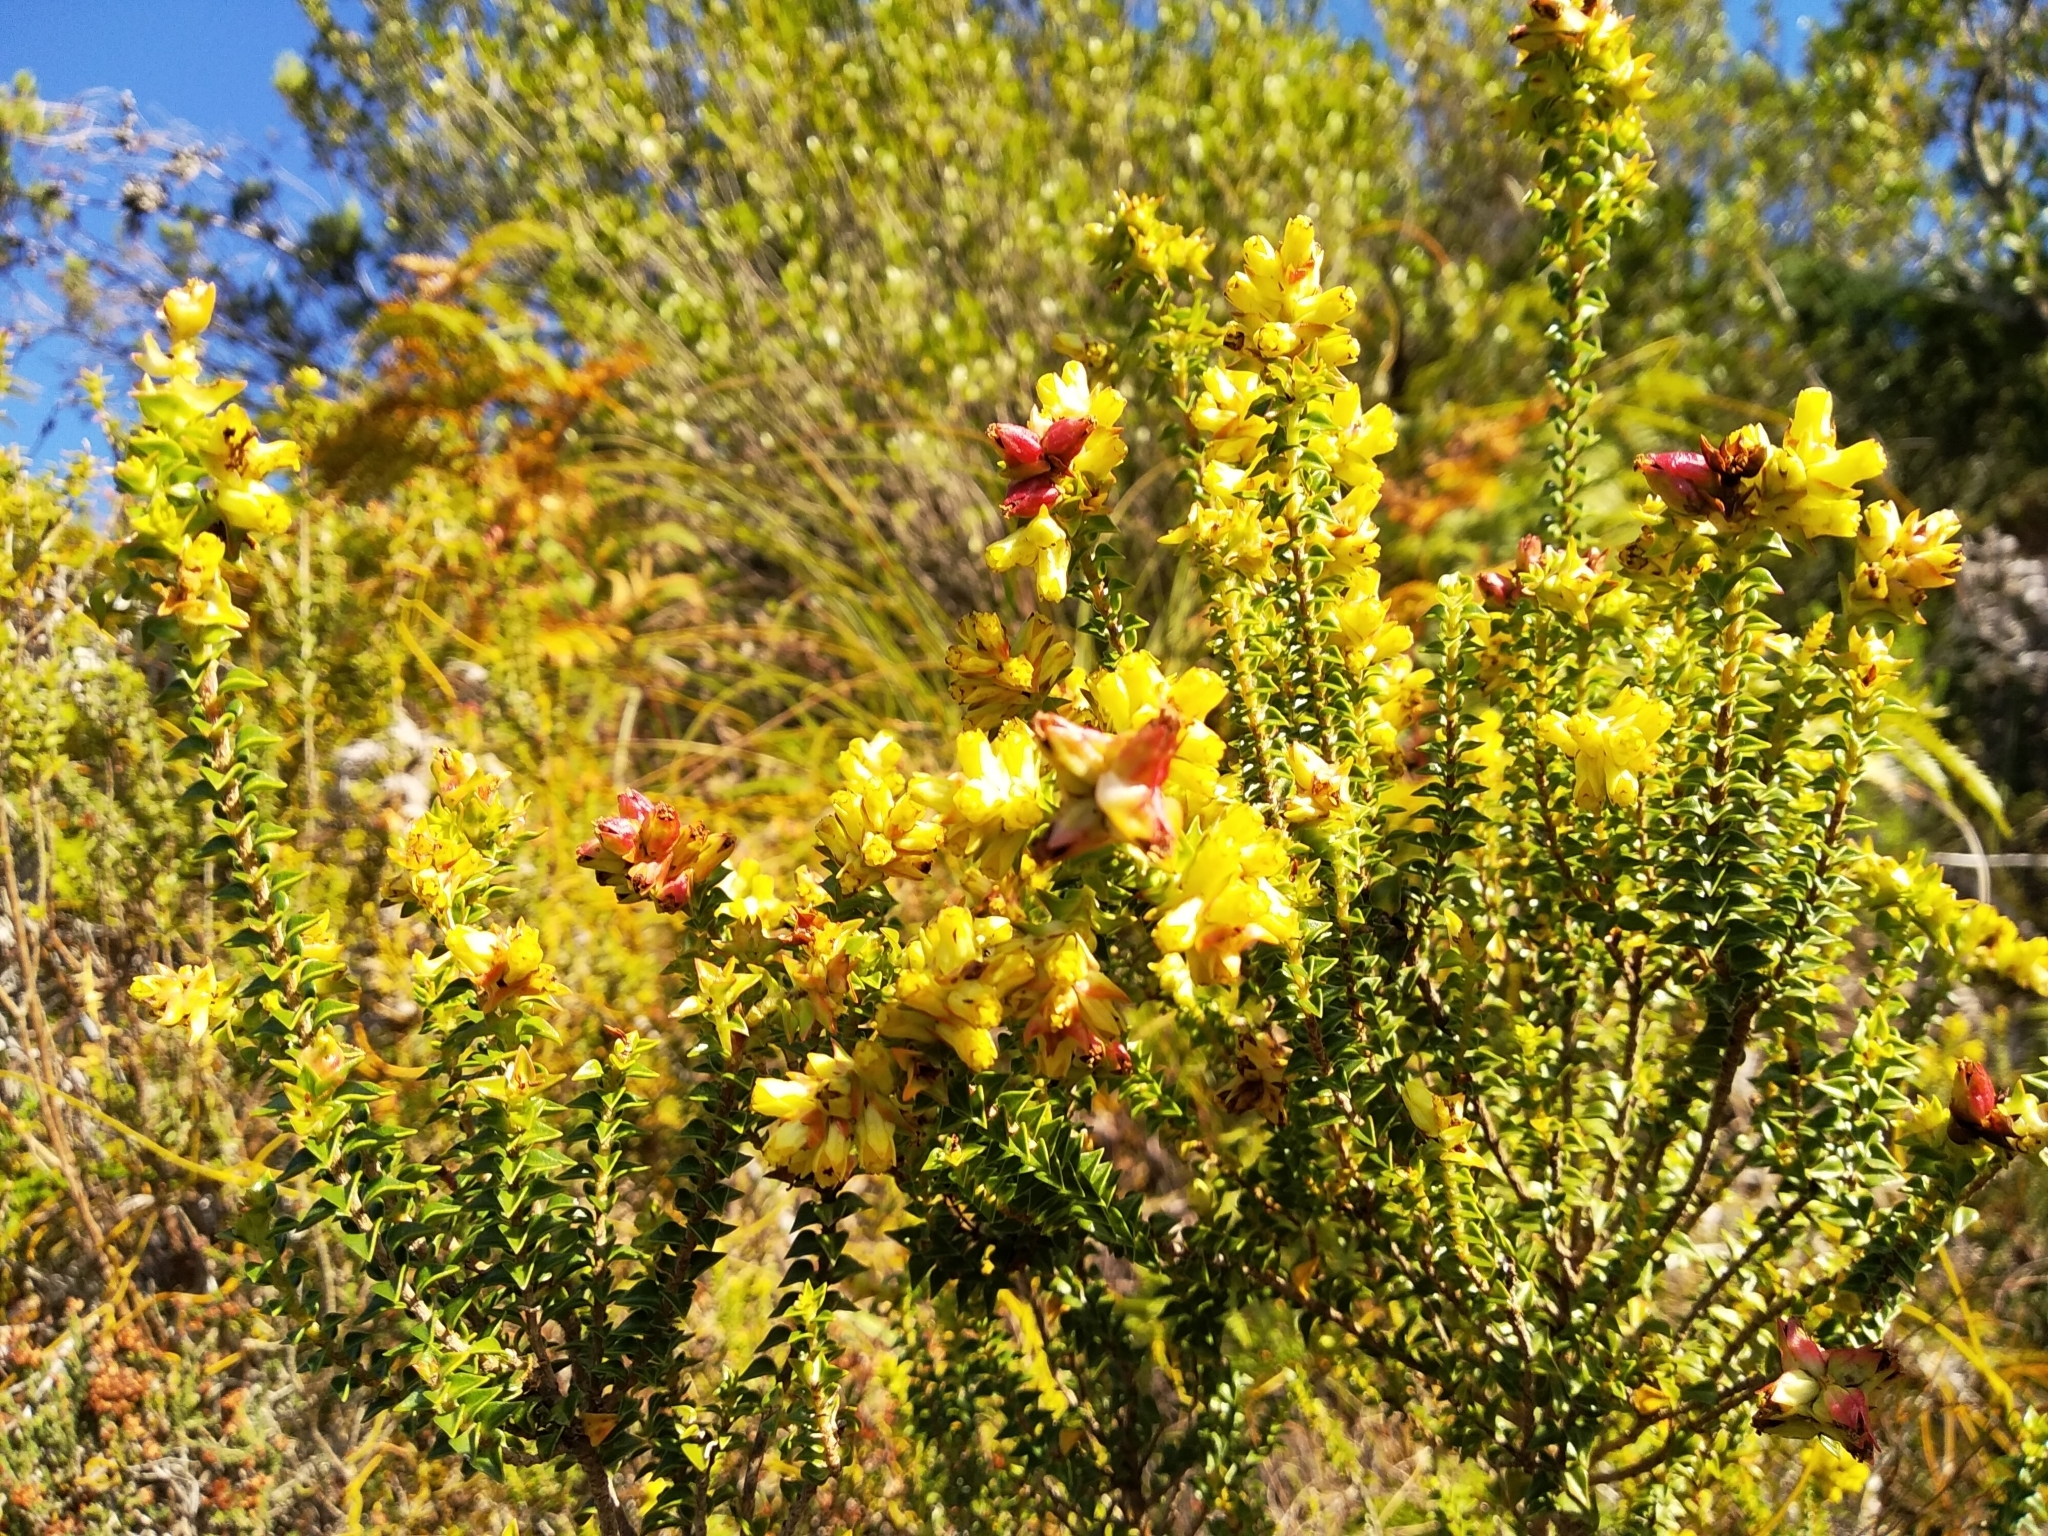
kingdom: Plantae
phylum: Tracheophyta
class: Magnoliopsida
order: Myrtales
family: Penaeaceae
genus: Penaea
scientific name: Penaea mucronata
